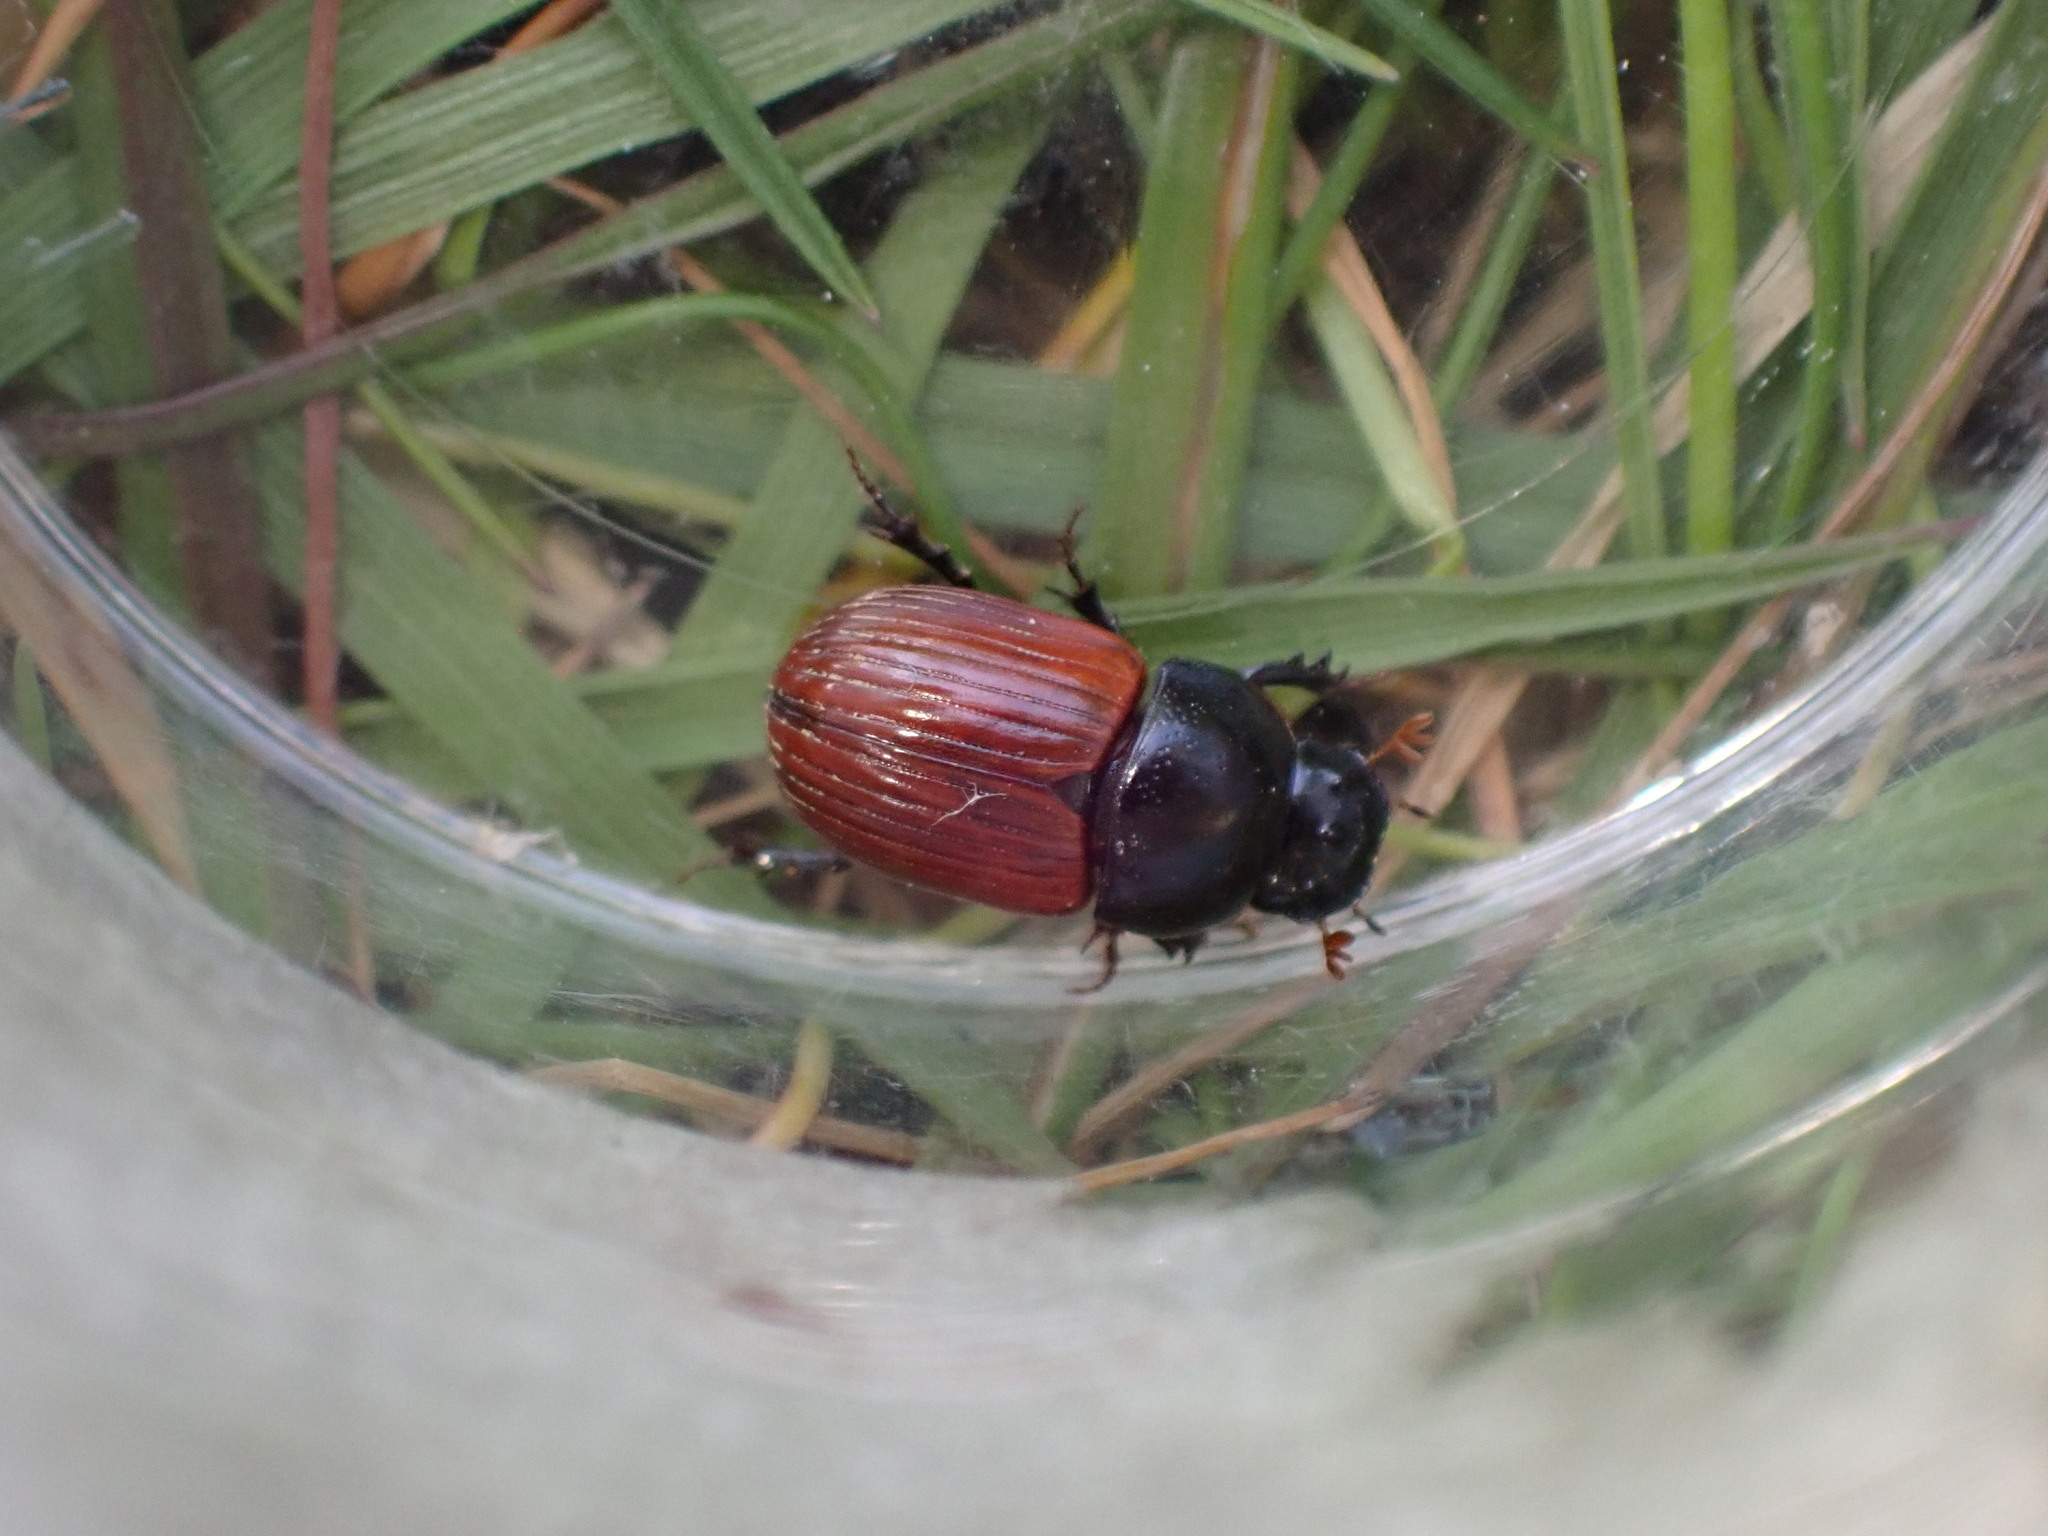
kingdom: Animalia
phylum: Arthropoda
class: Insecta
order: Coleoptera
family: Scarabaeidae
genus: Aphodius
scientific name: Aphodius fimetarius
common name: Common dung beetle
